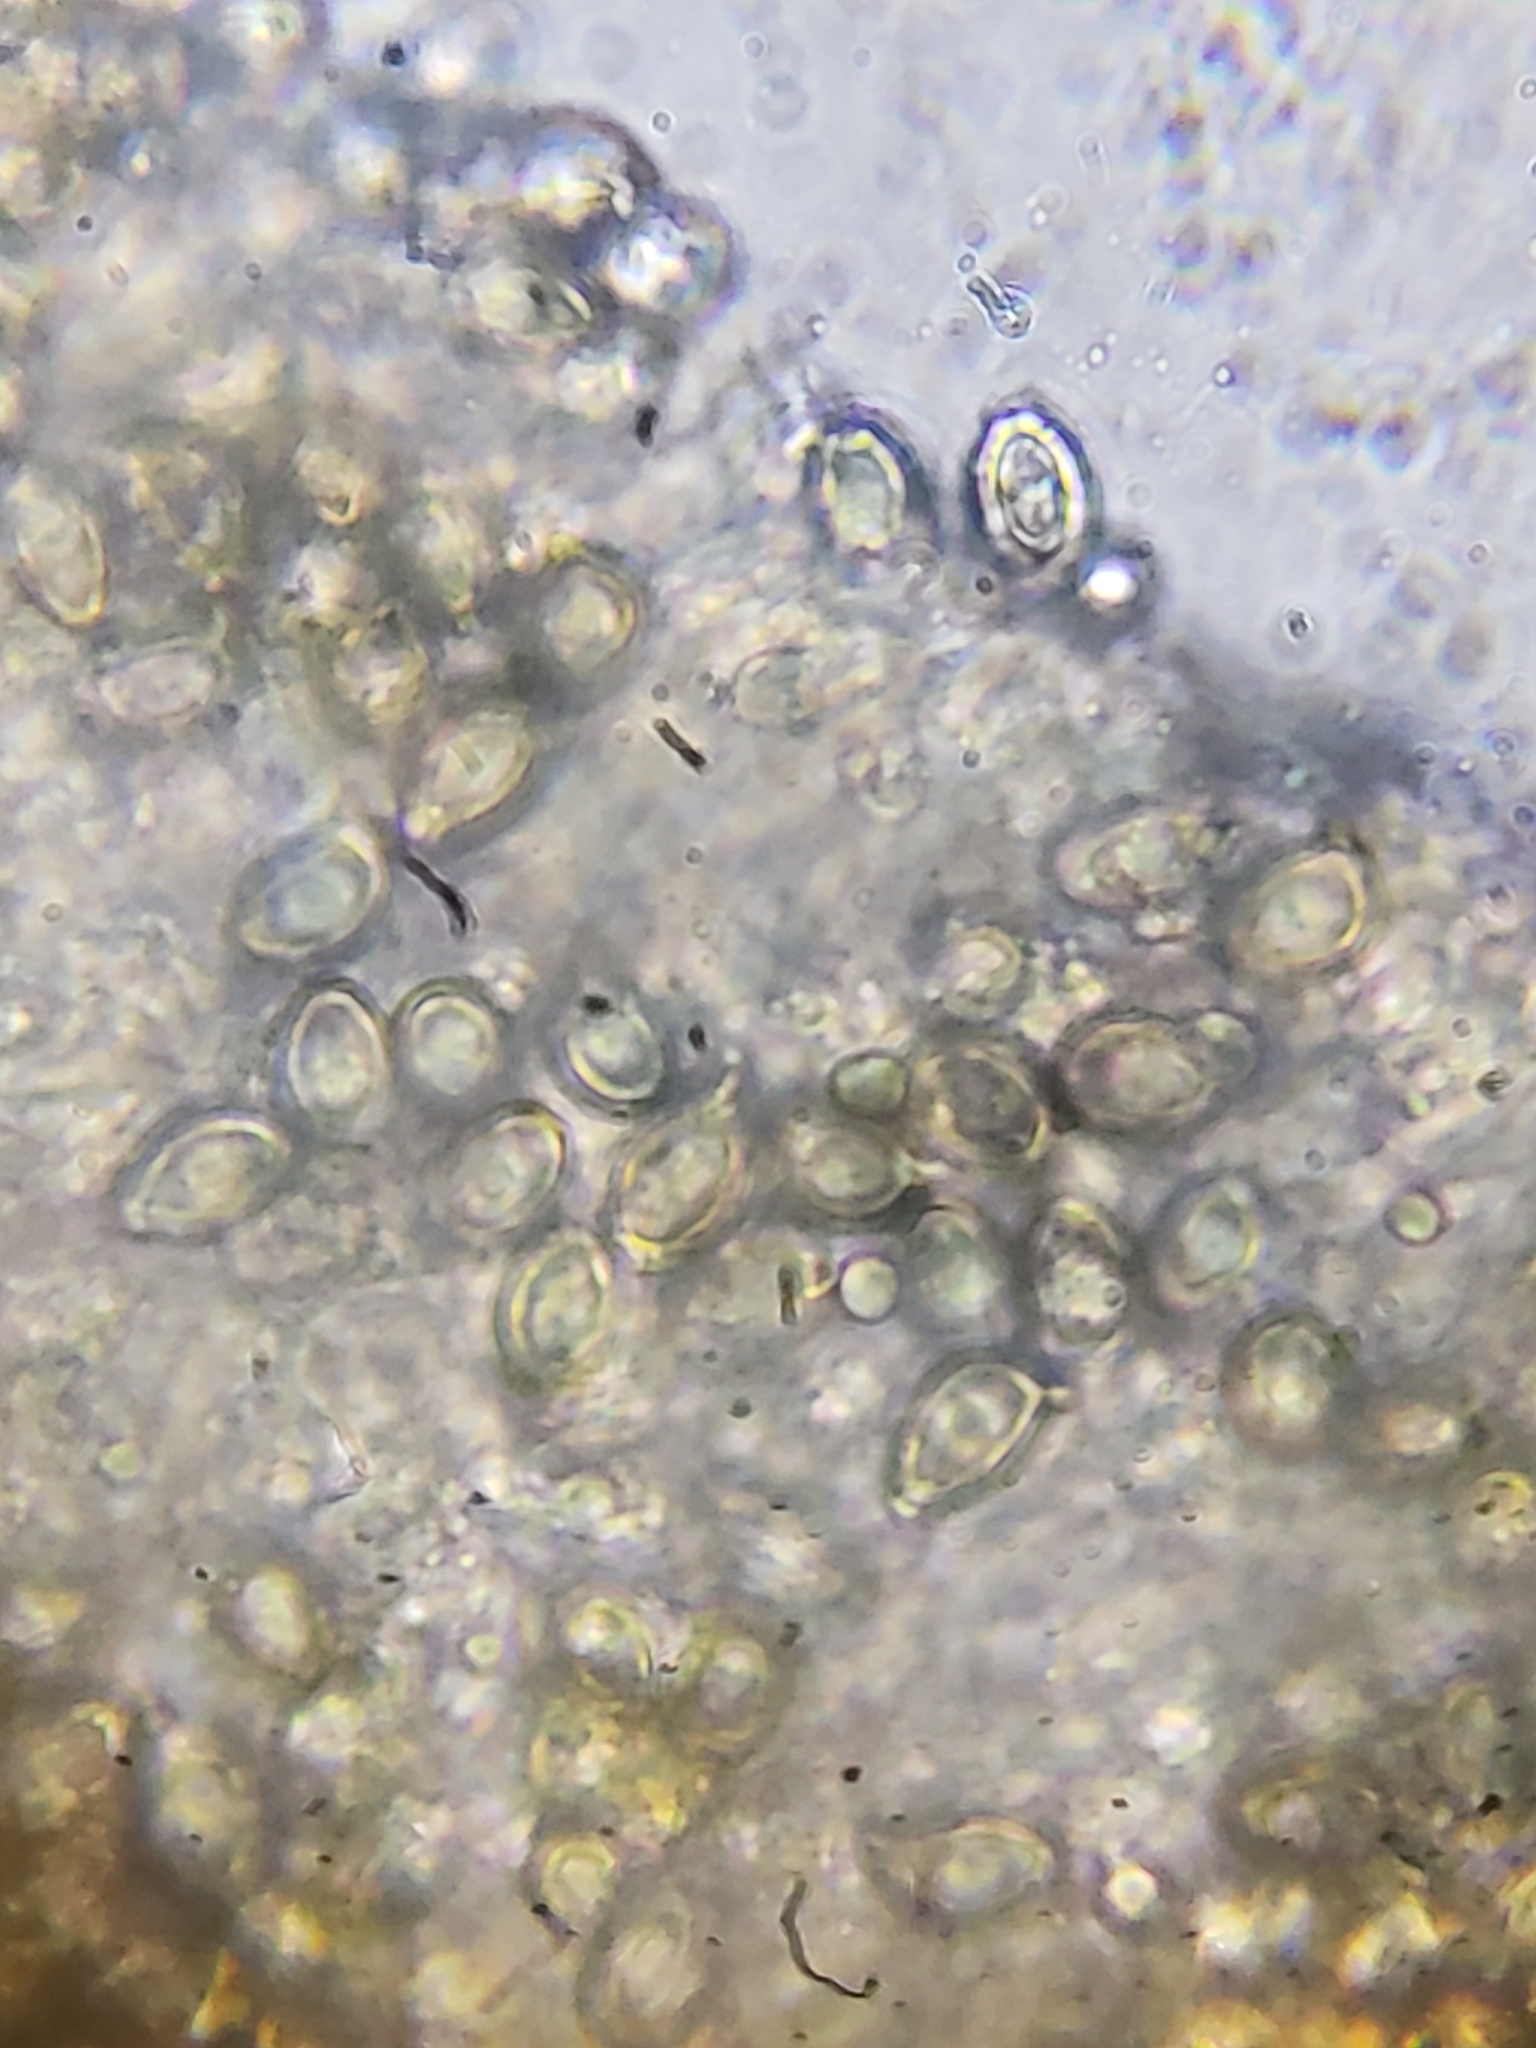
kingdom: Fungi
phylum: Basidiomycota
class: Agaricomycetes
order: Agaricales
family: Agaricaceae
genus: Chlorophyllum
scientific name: Chlorophyllum molybdites
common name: False parasol
